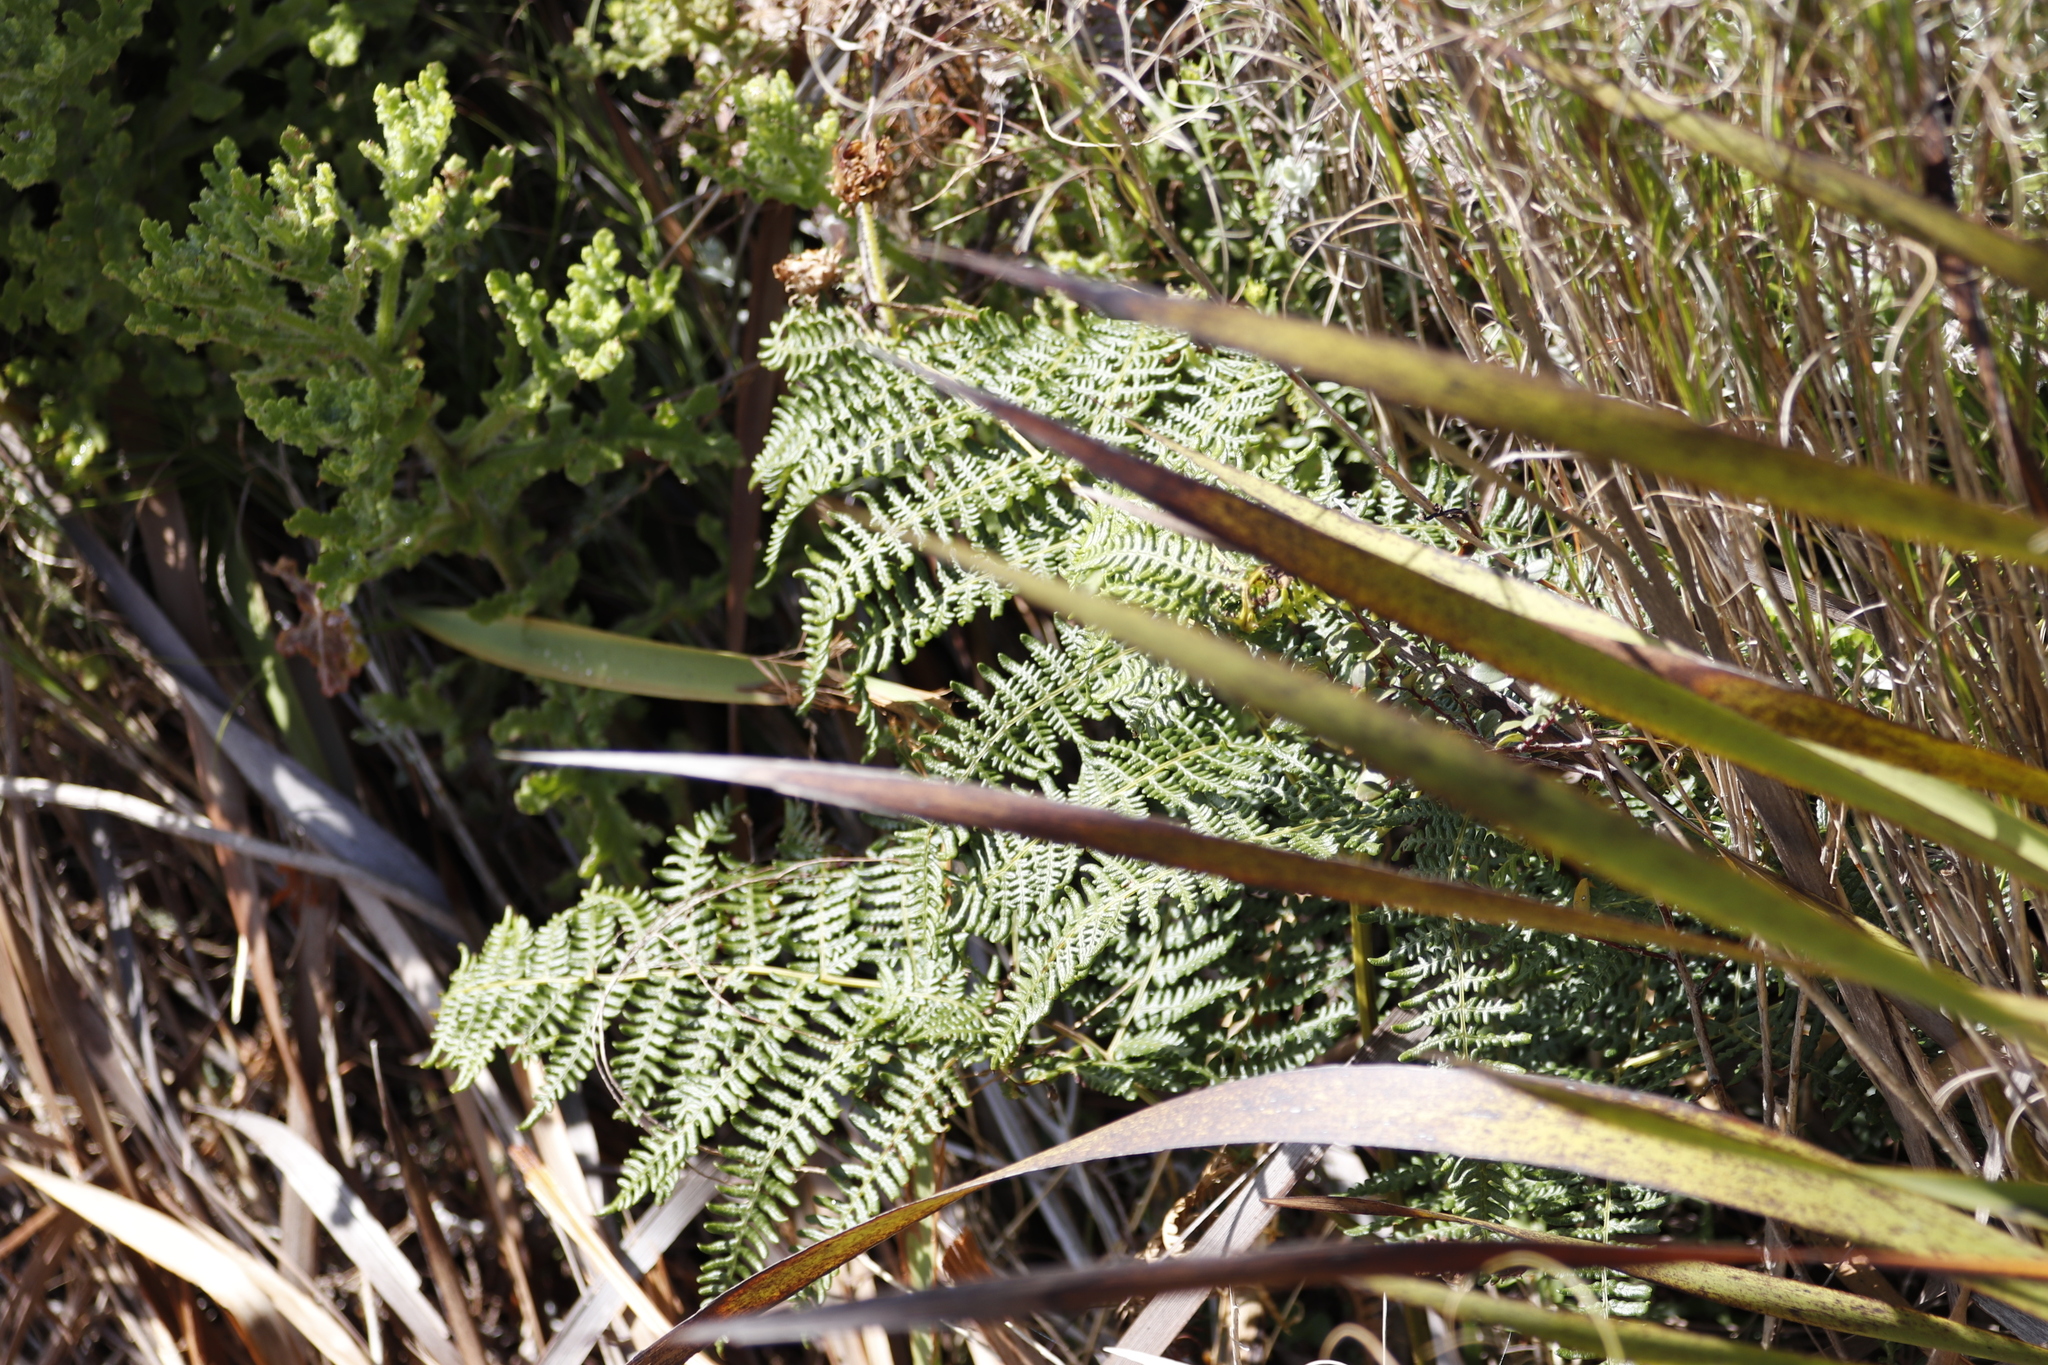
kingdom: Plantae
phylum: Tracheophyta
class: Polypodiopsida
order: Polypodiales
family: Dennstaedtiaceae
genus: Pteridium
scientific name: Pteridium aquilinum
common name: Bracken
